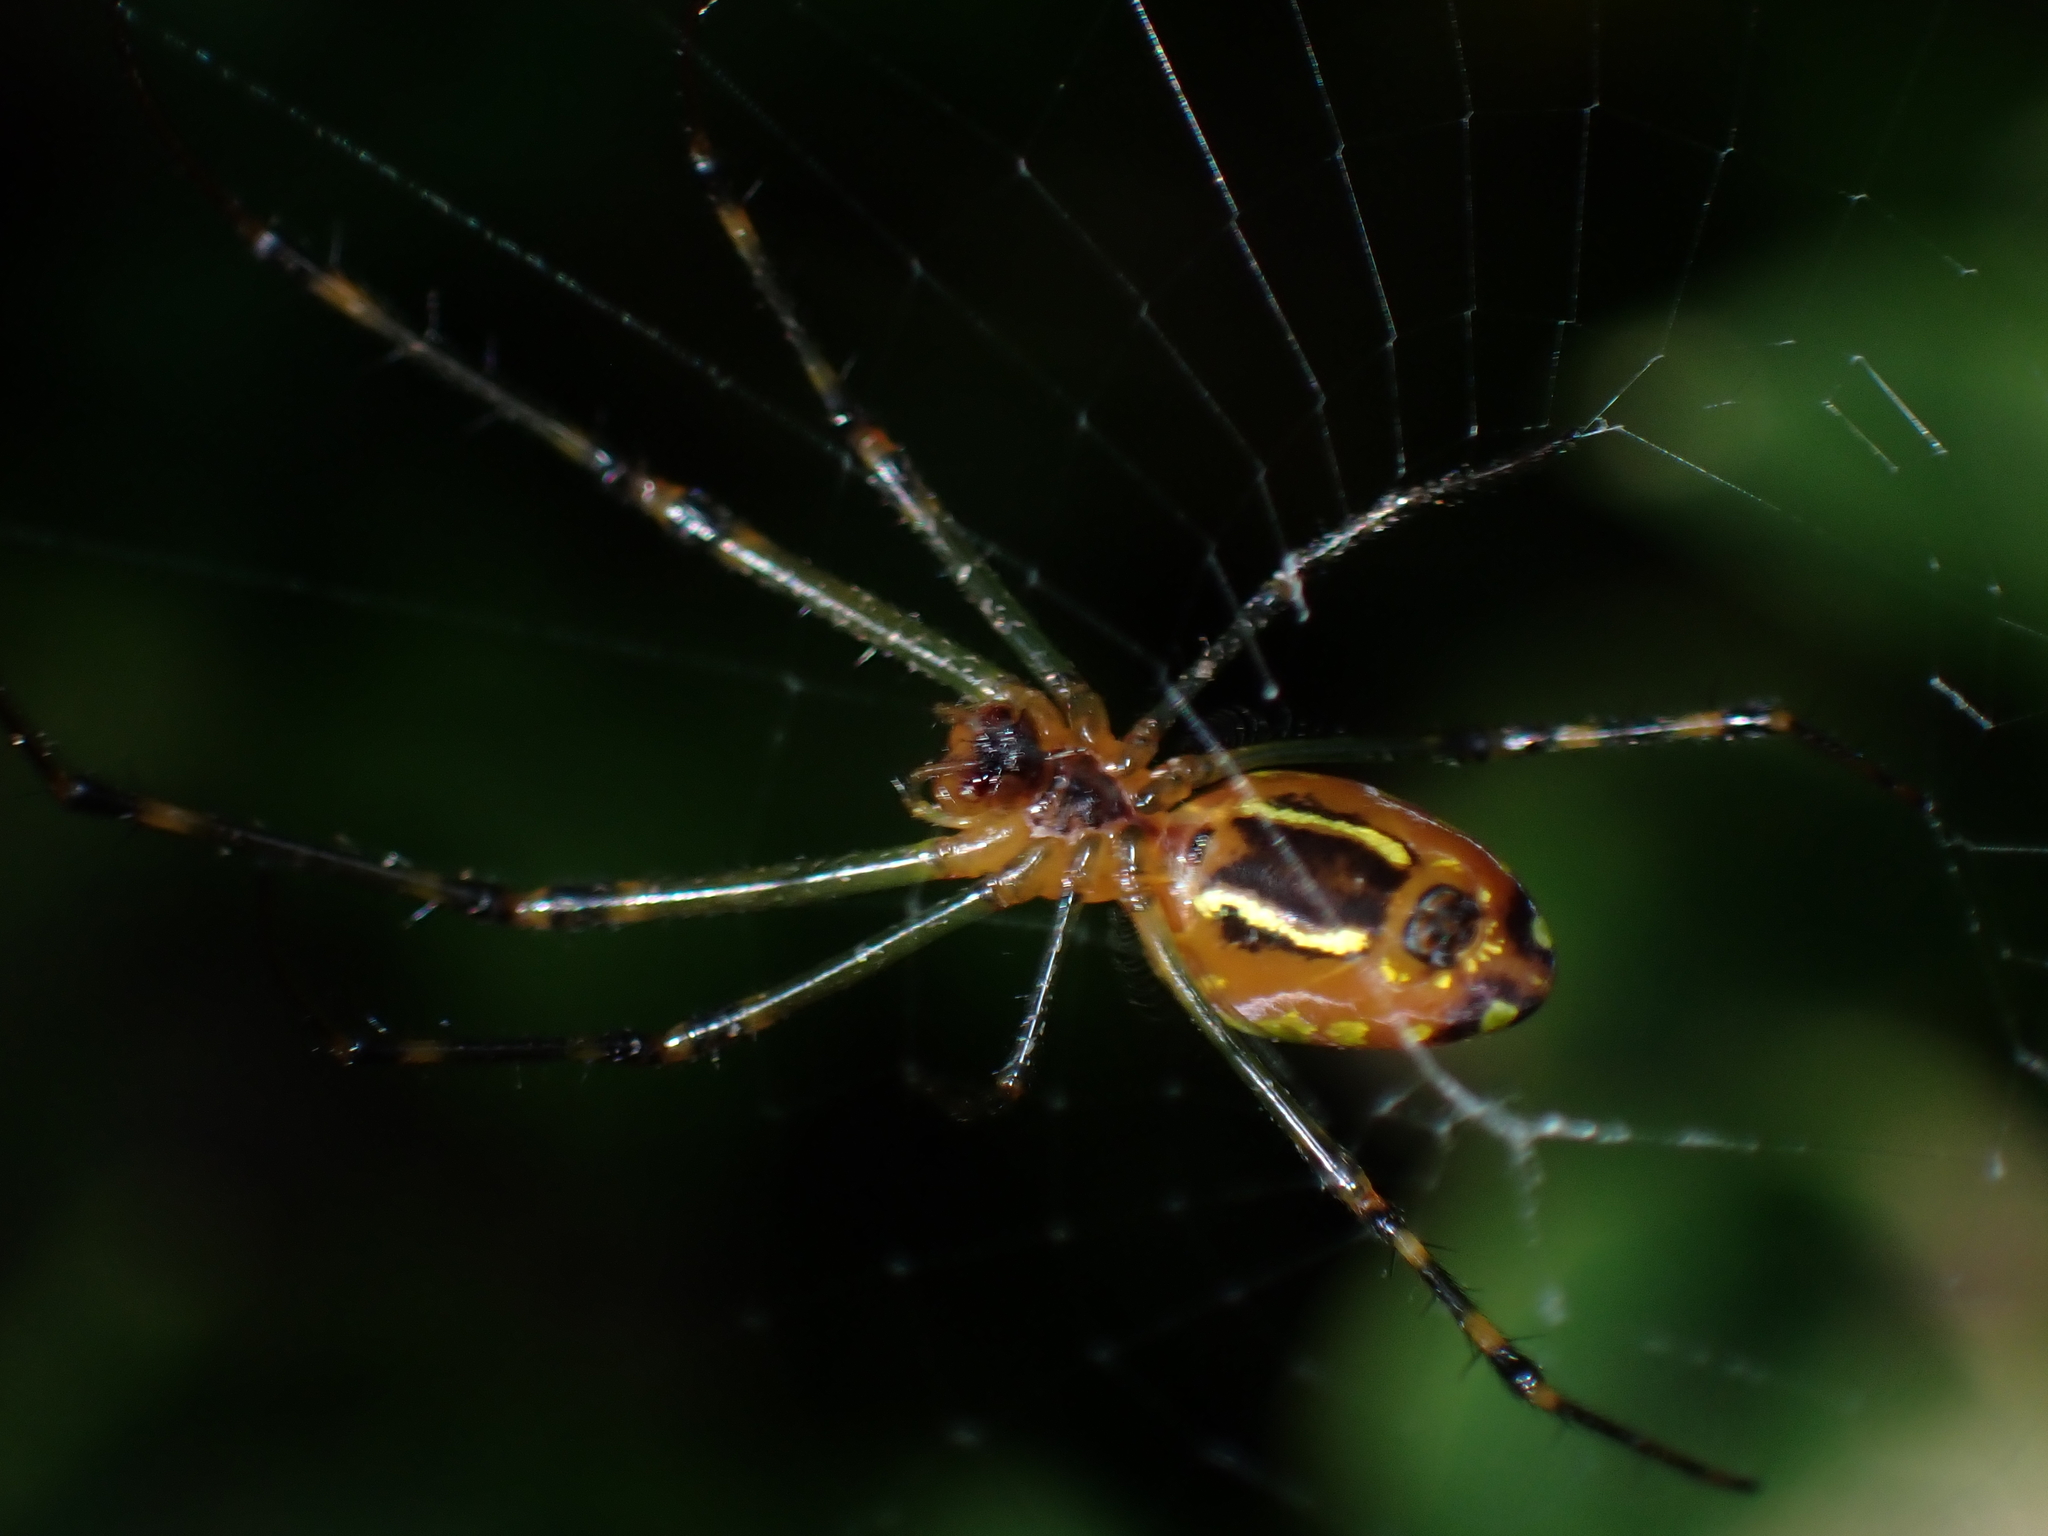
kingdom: Animalia
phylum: Arthropoda
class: Arachnida
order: Araneae
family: Tetragnathidae
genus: Leucauge
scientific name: Leucauge granulata
